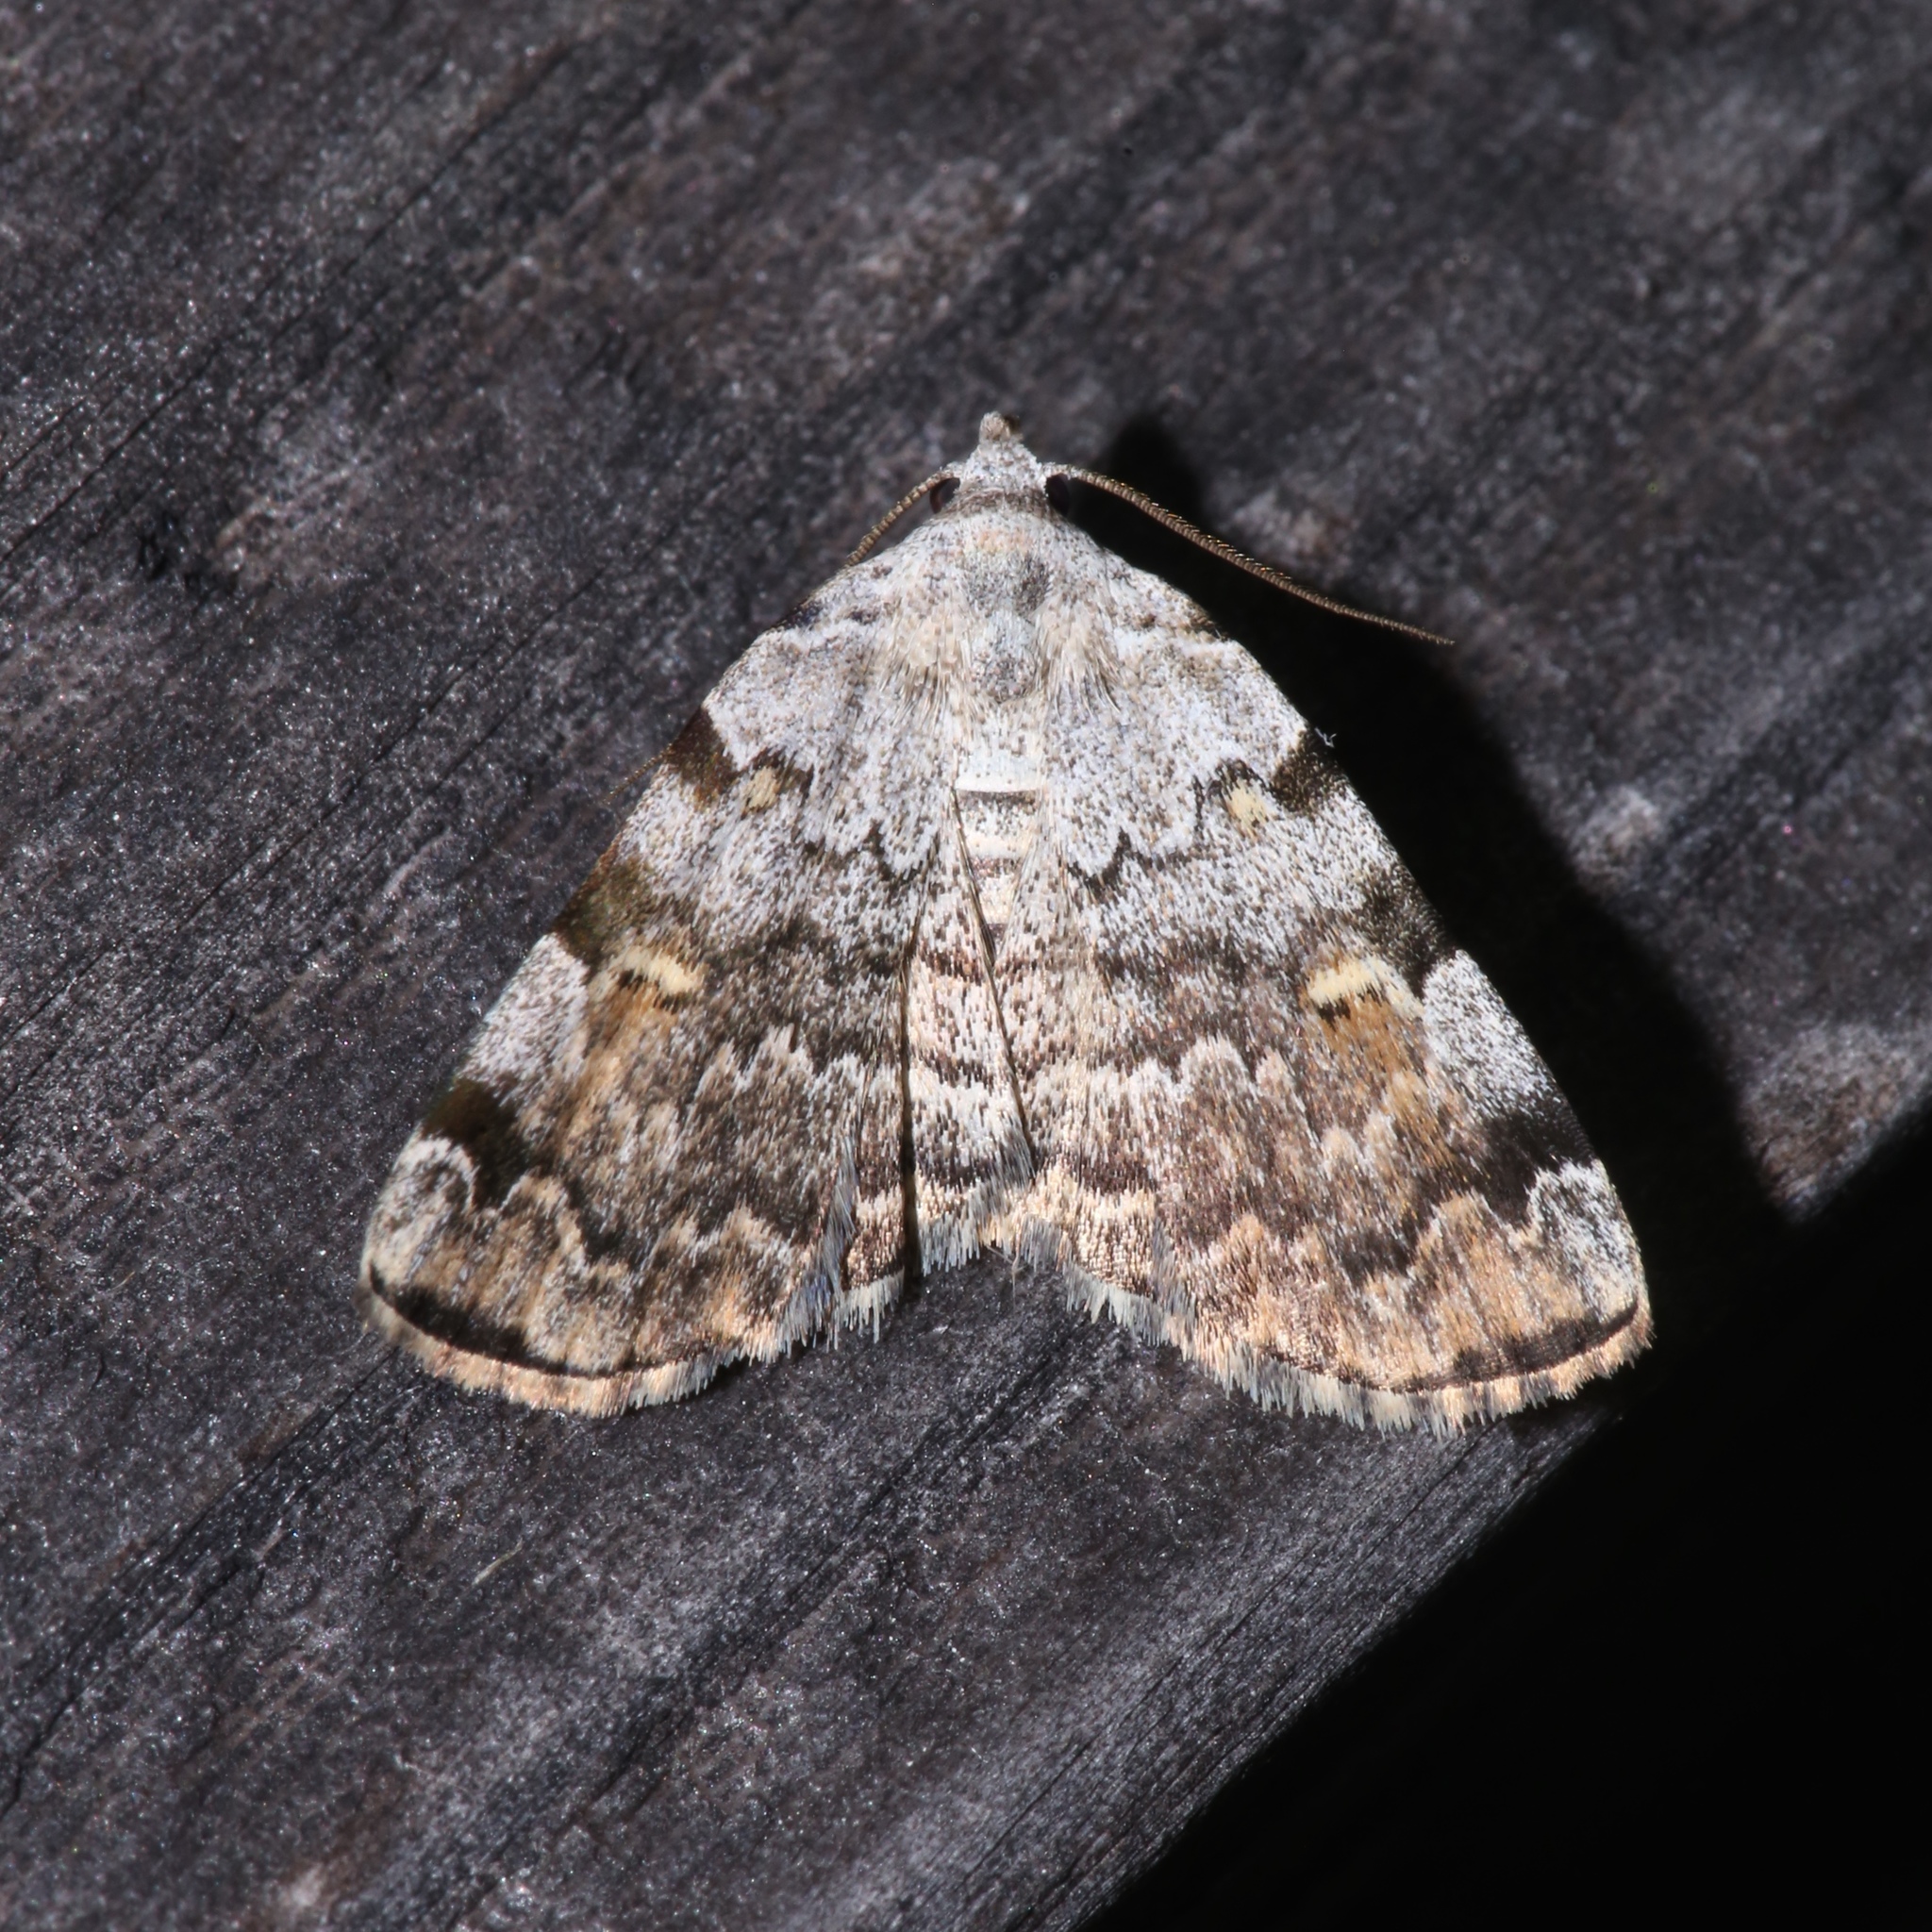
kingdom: Animalia
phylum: Arthropoda
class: Insecta
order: Lepidoptera
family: Erebidae
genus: Idia
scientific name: Idia americalis
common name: American idia moth
